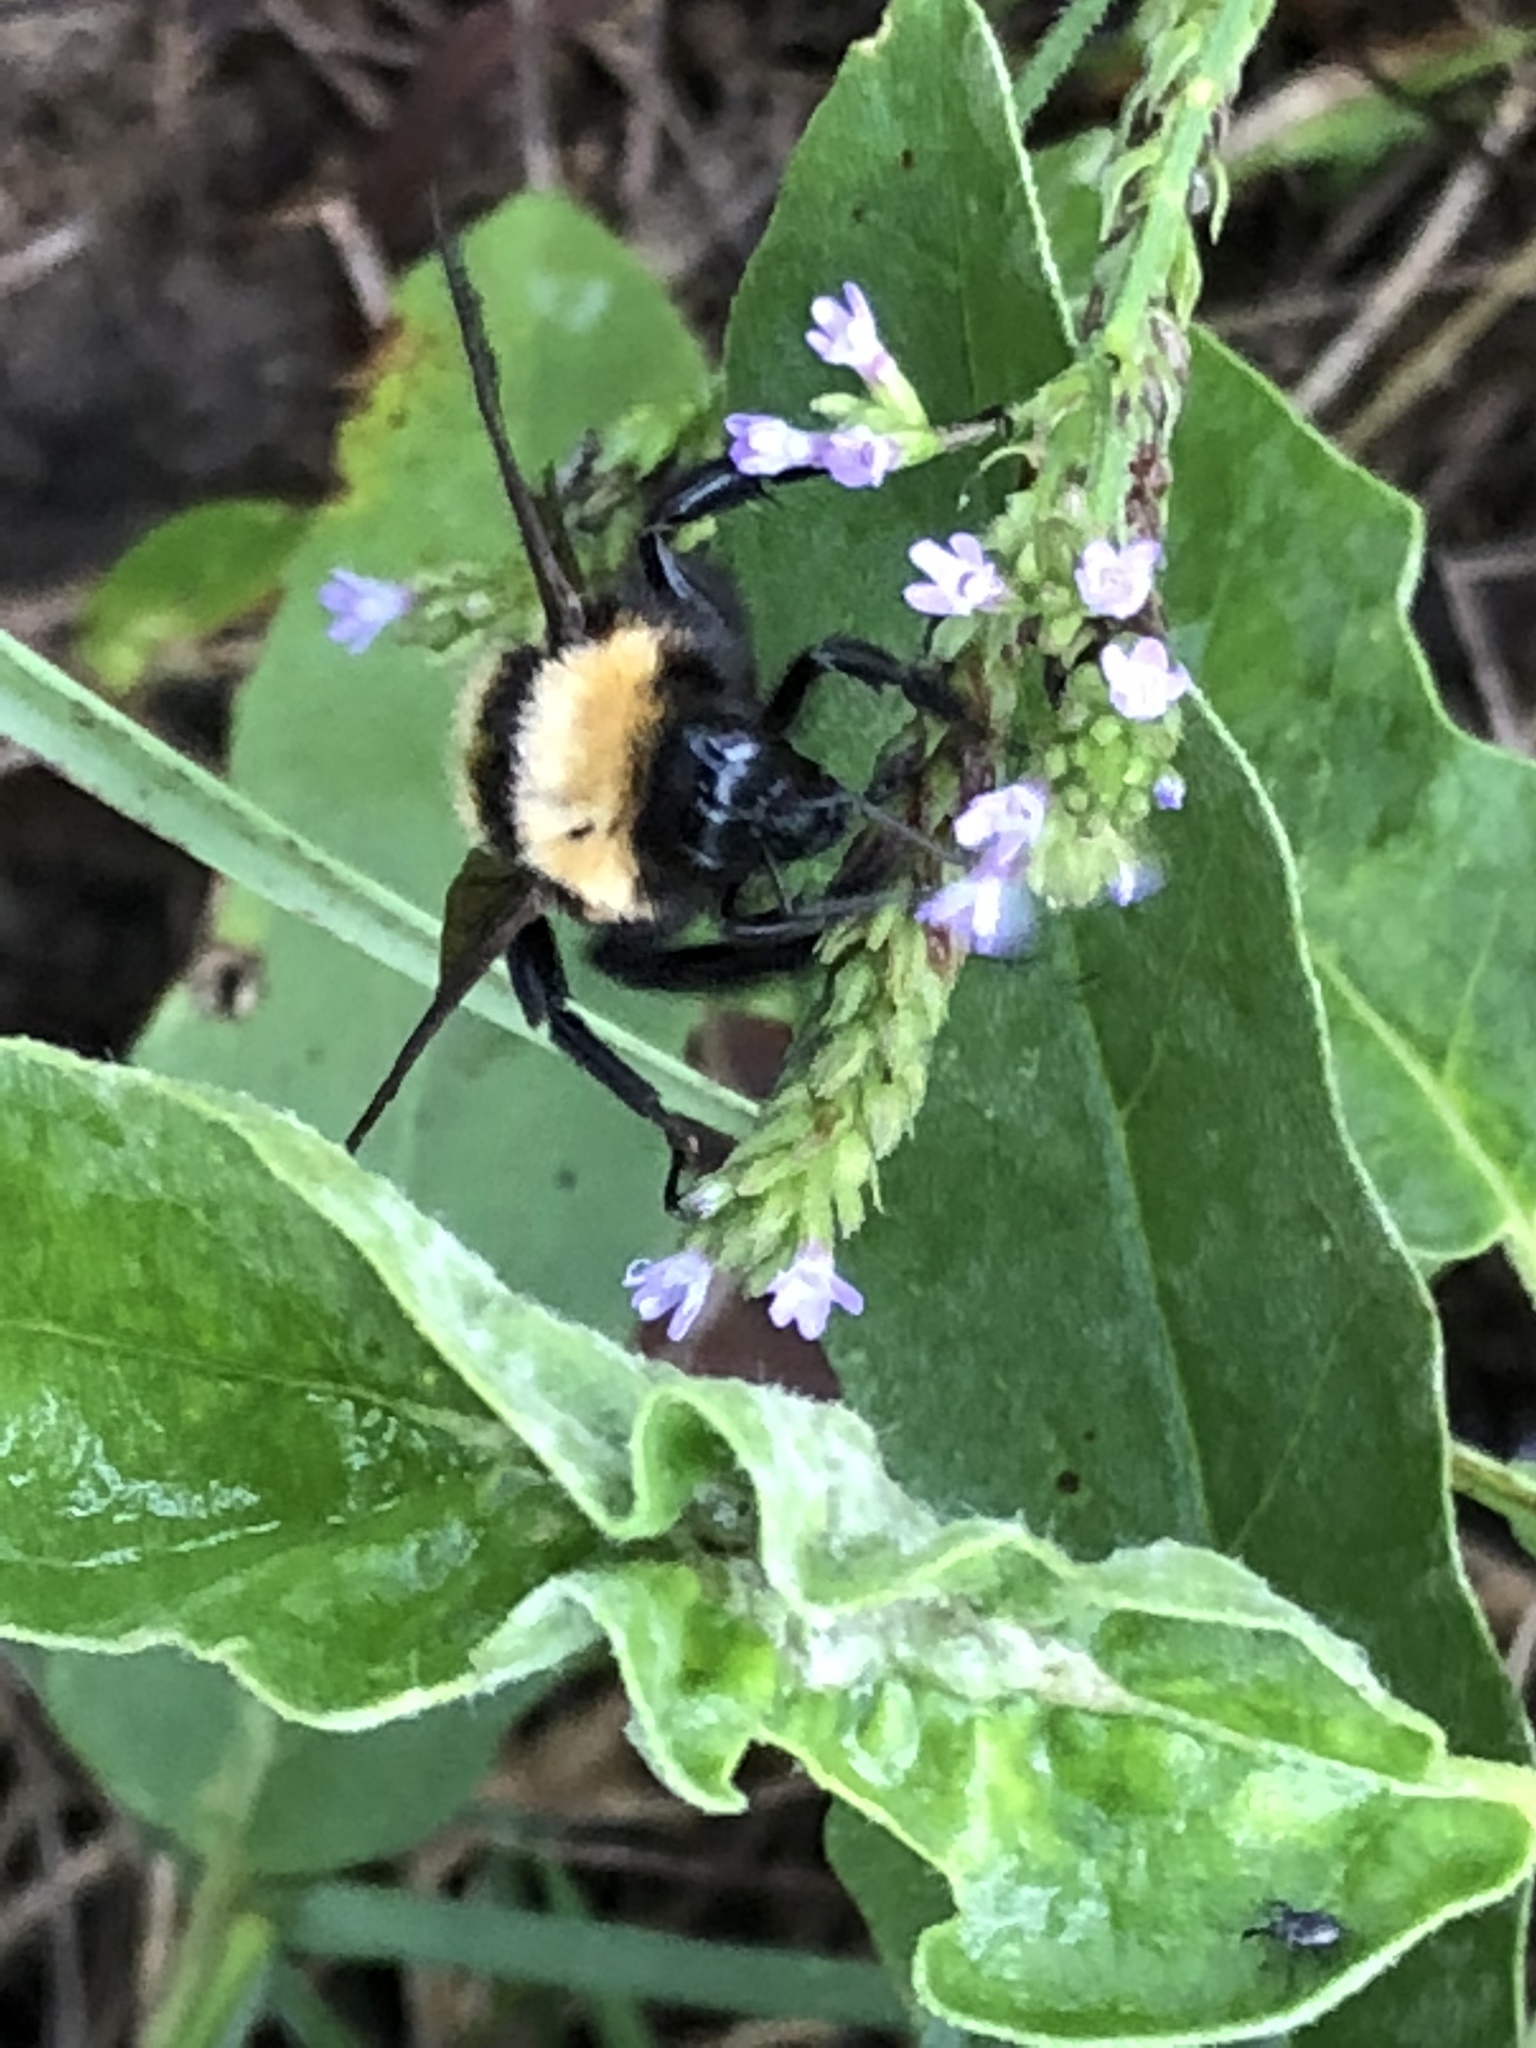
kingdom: Animalia
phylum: Arthropoda
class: Insecta
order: Hymenoptera
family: Apidae
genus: Bombus
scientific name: Bombus sonorus
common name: Sonoran bumble bee
